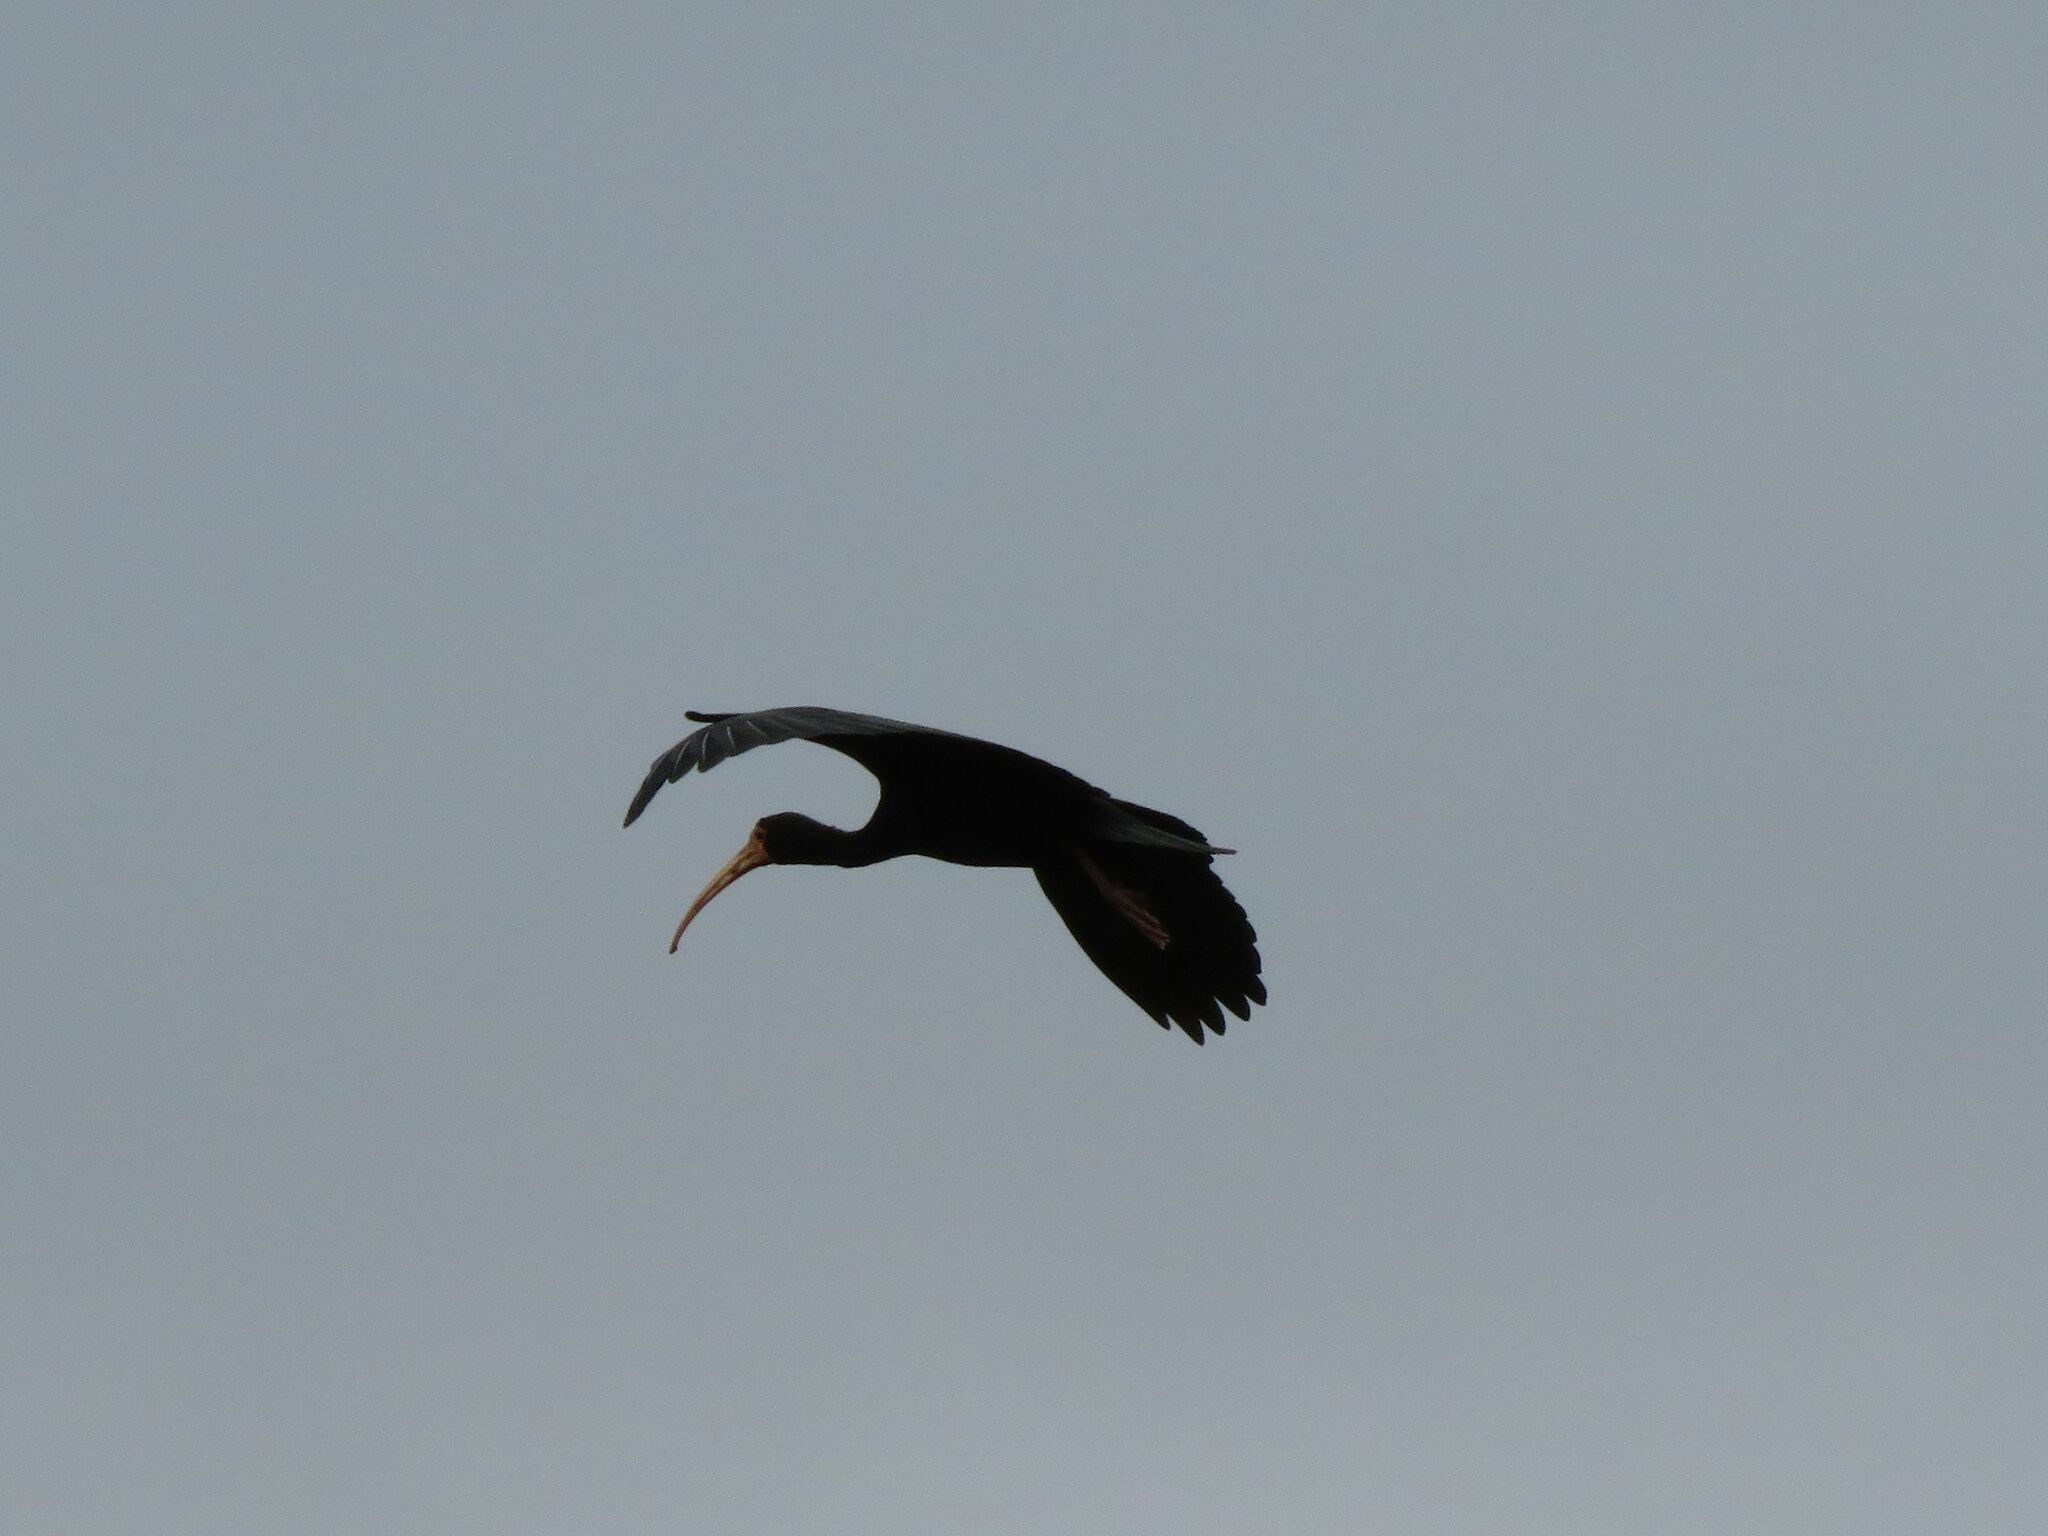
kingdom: Animalia
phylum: Chordata
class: Aves
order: Pelecaniformes
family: Threskiornithidae
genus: Phimosus
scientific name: Phimosus infuscatus
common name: Bare-faced ibis
